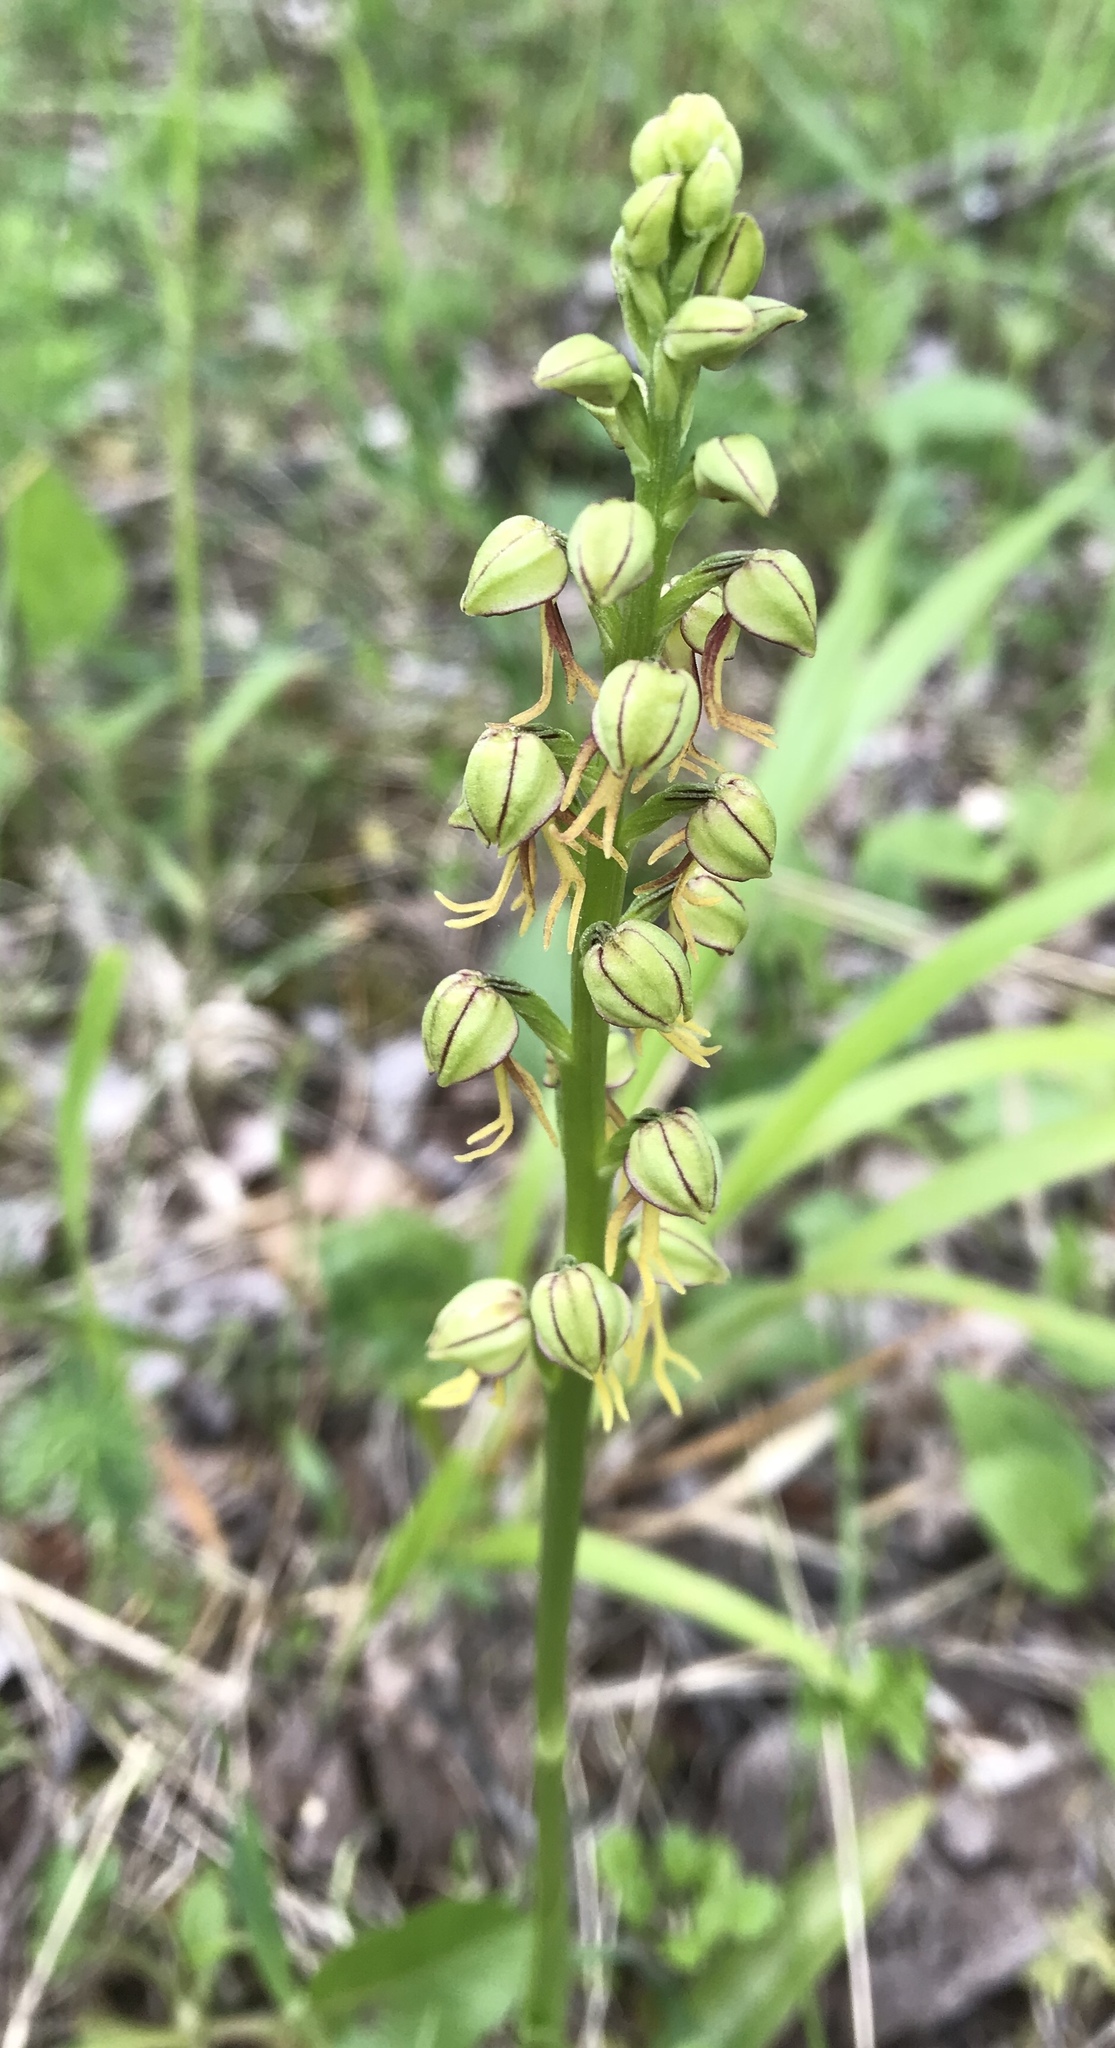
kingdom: Plantae
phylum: Tracheophyta
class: Liliopsida
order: Asparagales
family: Orchidaceae
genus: Orchis
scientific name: Orchis anthropophora
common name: Man orchid
